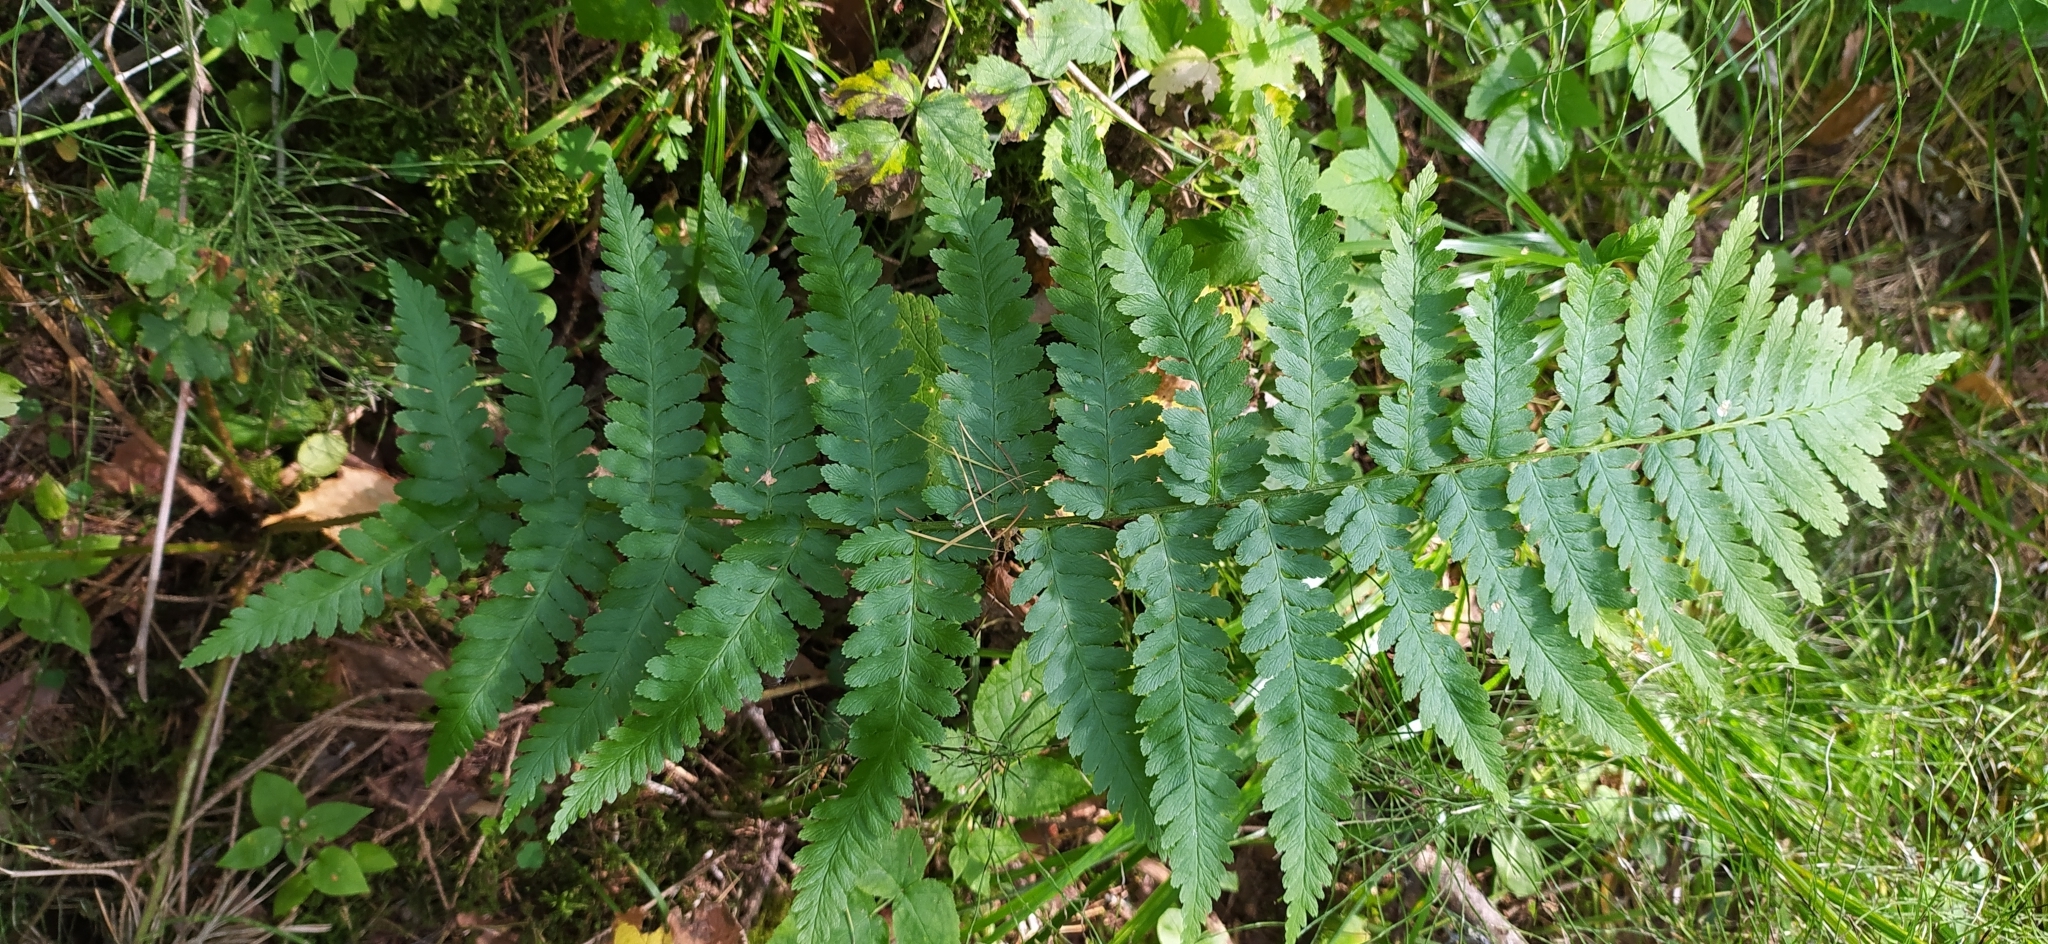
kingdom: Plantae
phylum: Tracheophyta
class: Polypodiopsida
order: Polypodiales
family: Dryopteridaceae
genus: Dryopteris
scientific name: Dryopteris filix-mas
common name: Male fern
